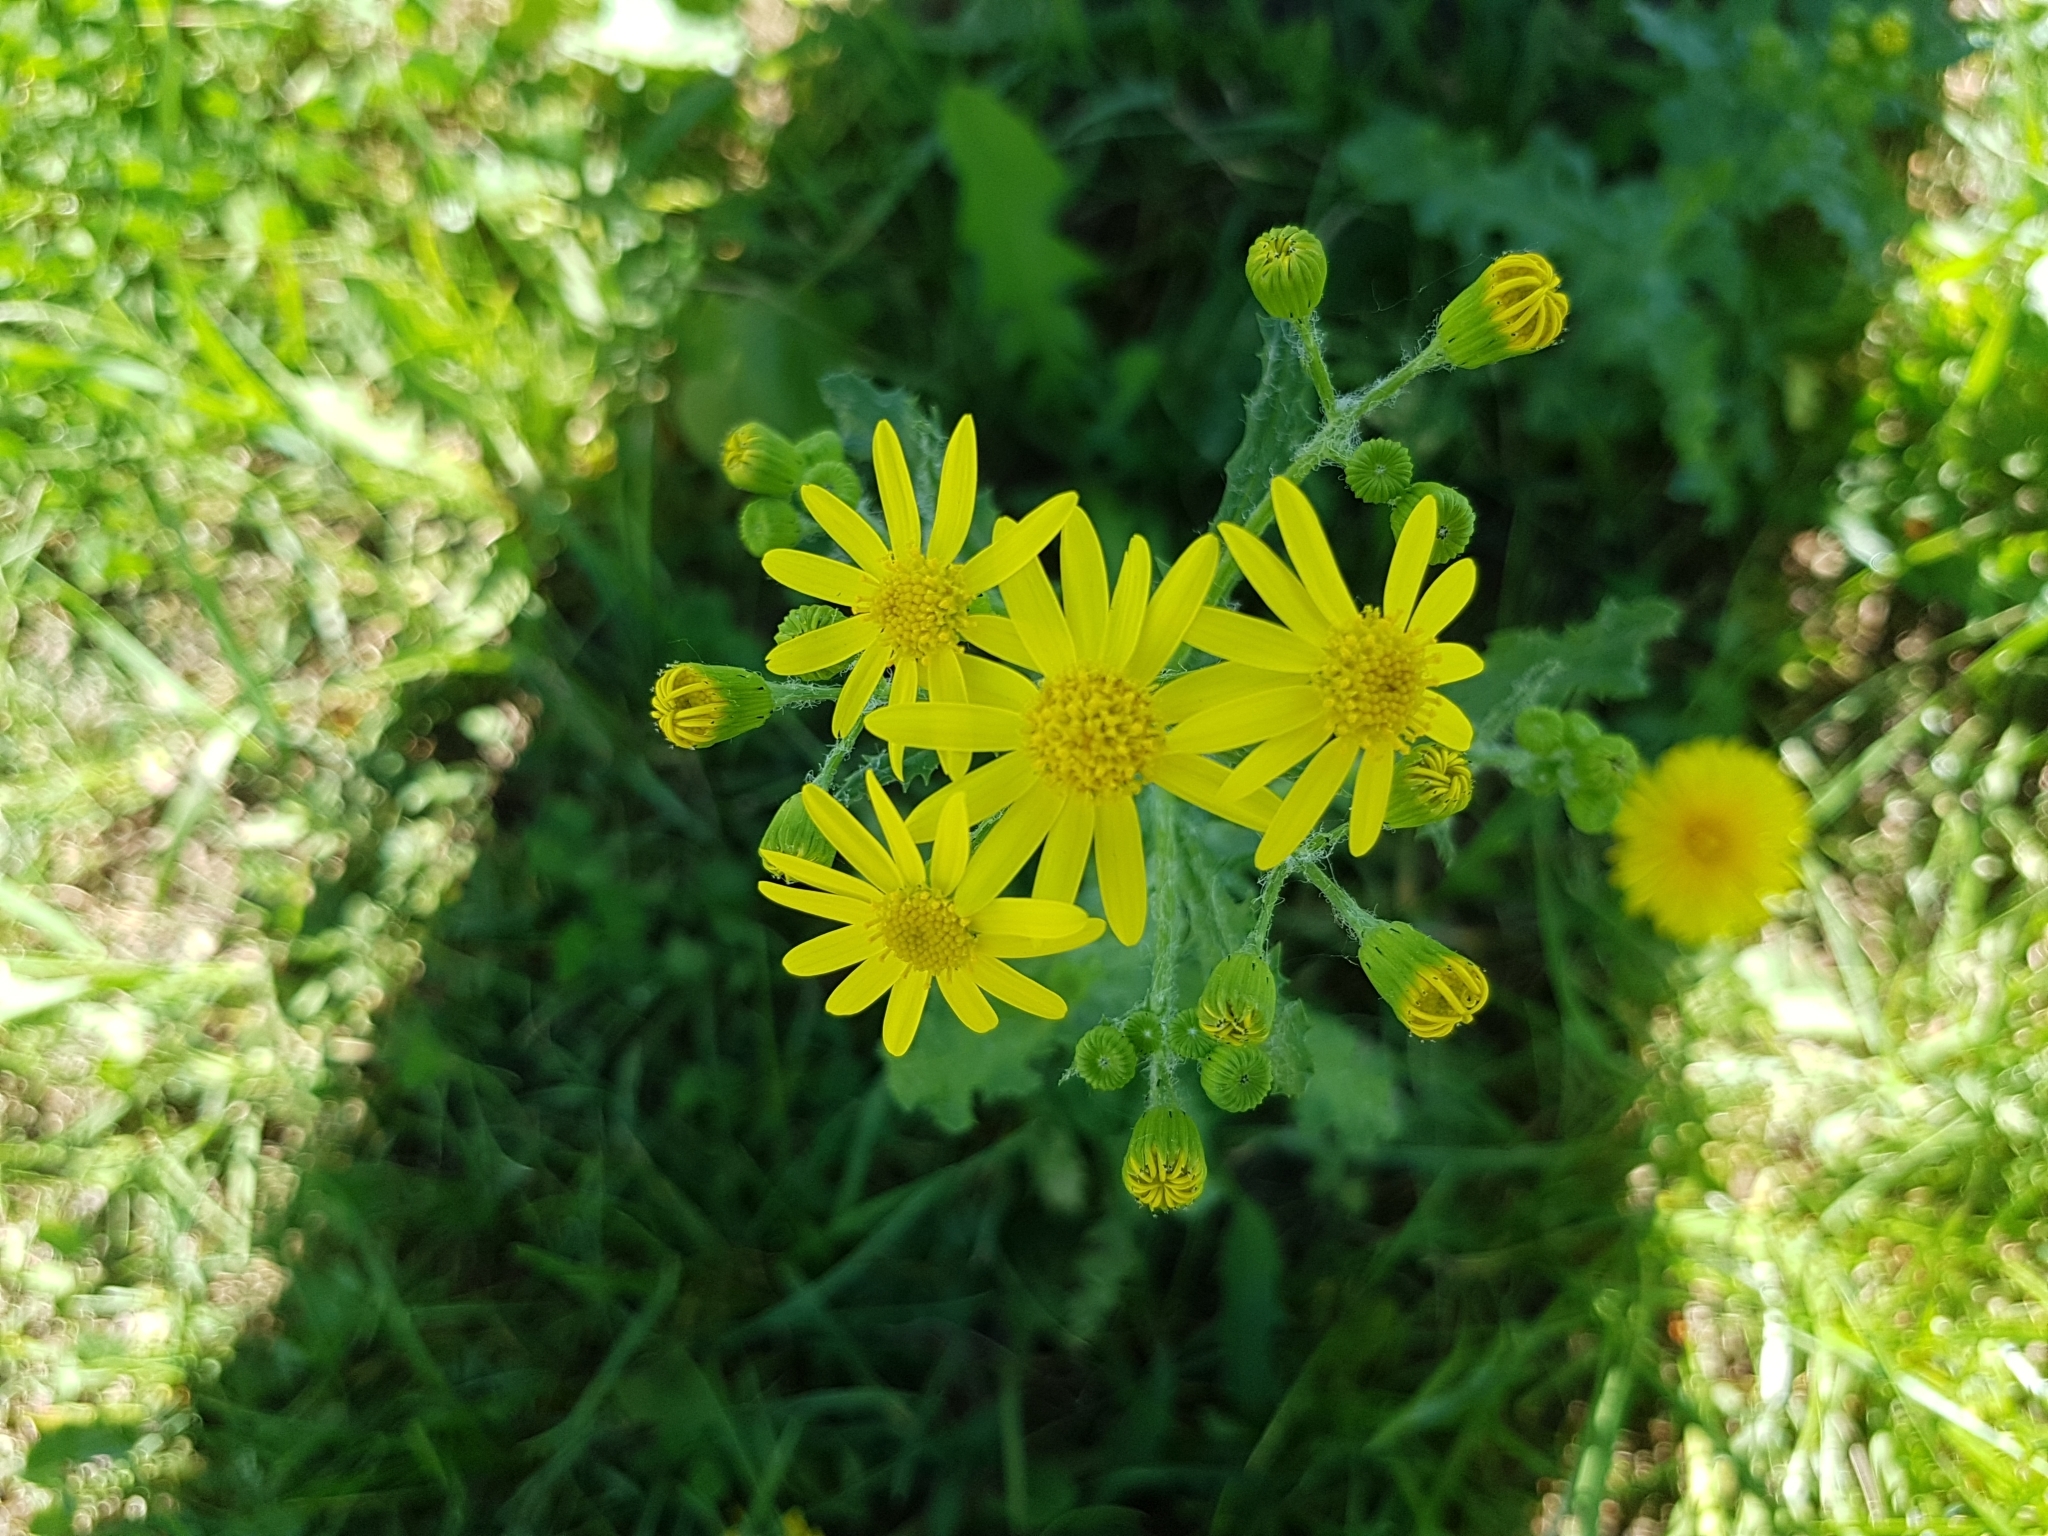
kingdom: Plantae
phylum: Tracheophyta
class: Magnoliopsida
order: Asterales
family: Asteraceae
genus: Senecio
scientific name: Senecio vernalis
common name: Eastern groundsel
